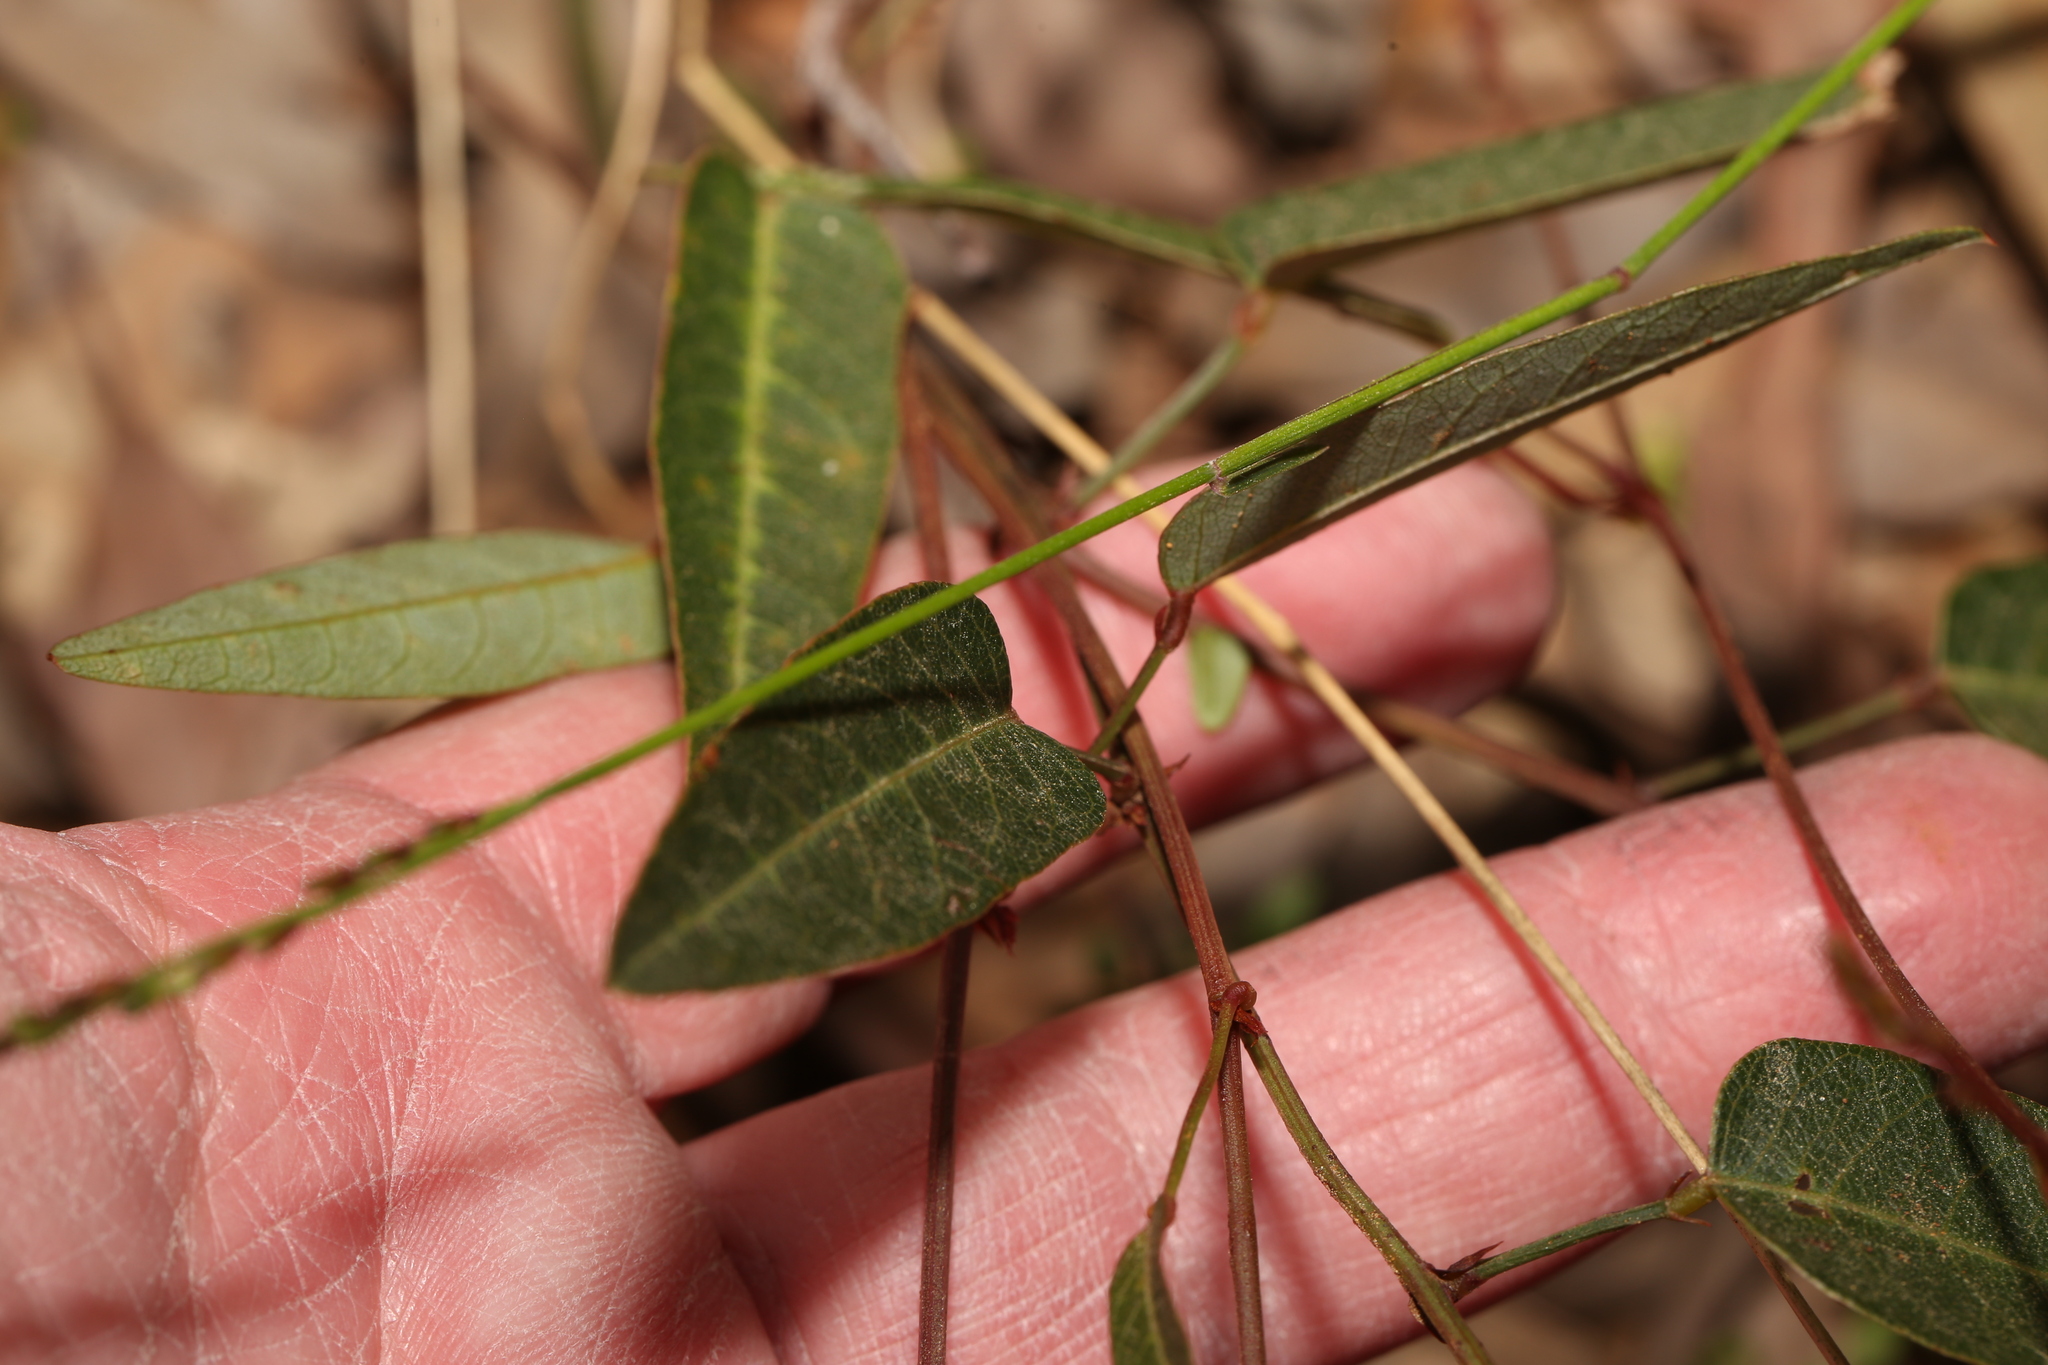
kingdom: Plantae
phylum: Tracheophyta
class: Magnoliopsida
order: Fabales
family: Fabaceae
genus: Hardenbergia
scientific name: Hardenbergia violacea
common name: Coral-pea
